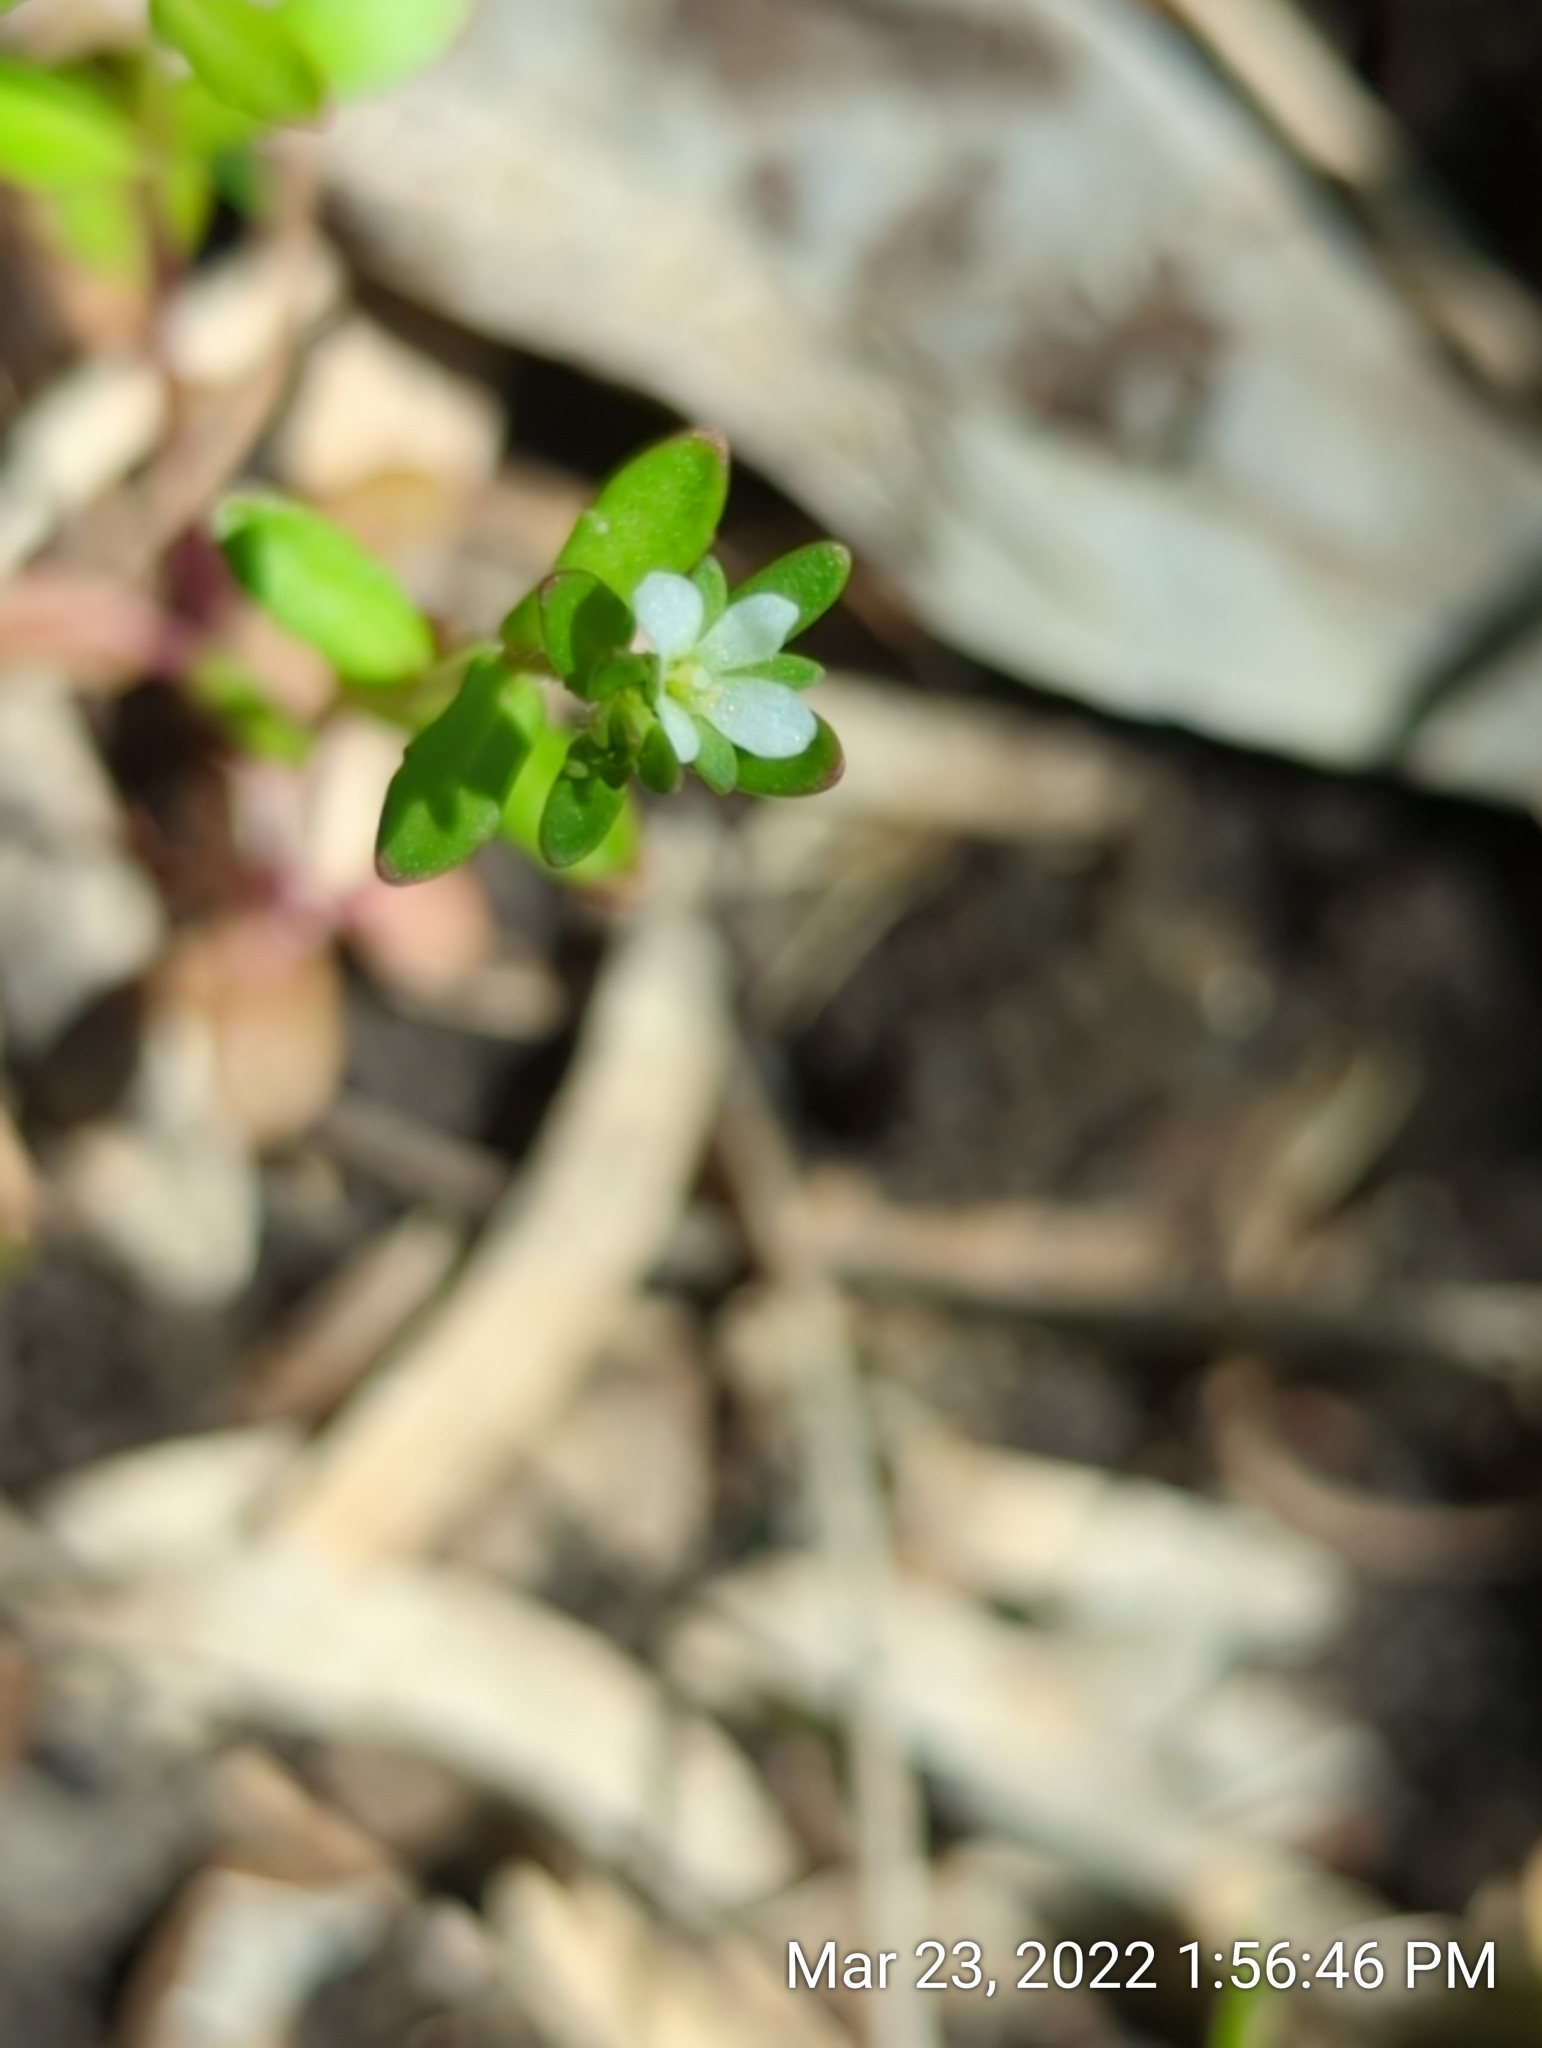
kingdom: Plantae
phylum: Tracheophyta
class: Magnoliopsida
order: Lamiales
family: Plantaginaceae
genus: Veronica
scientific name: Veronica peregrina
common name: Neckweed
